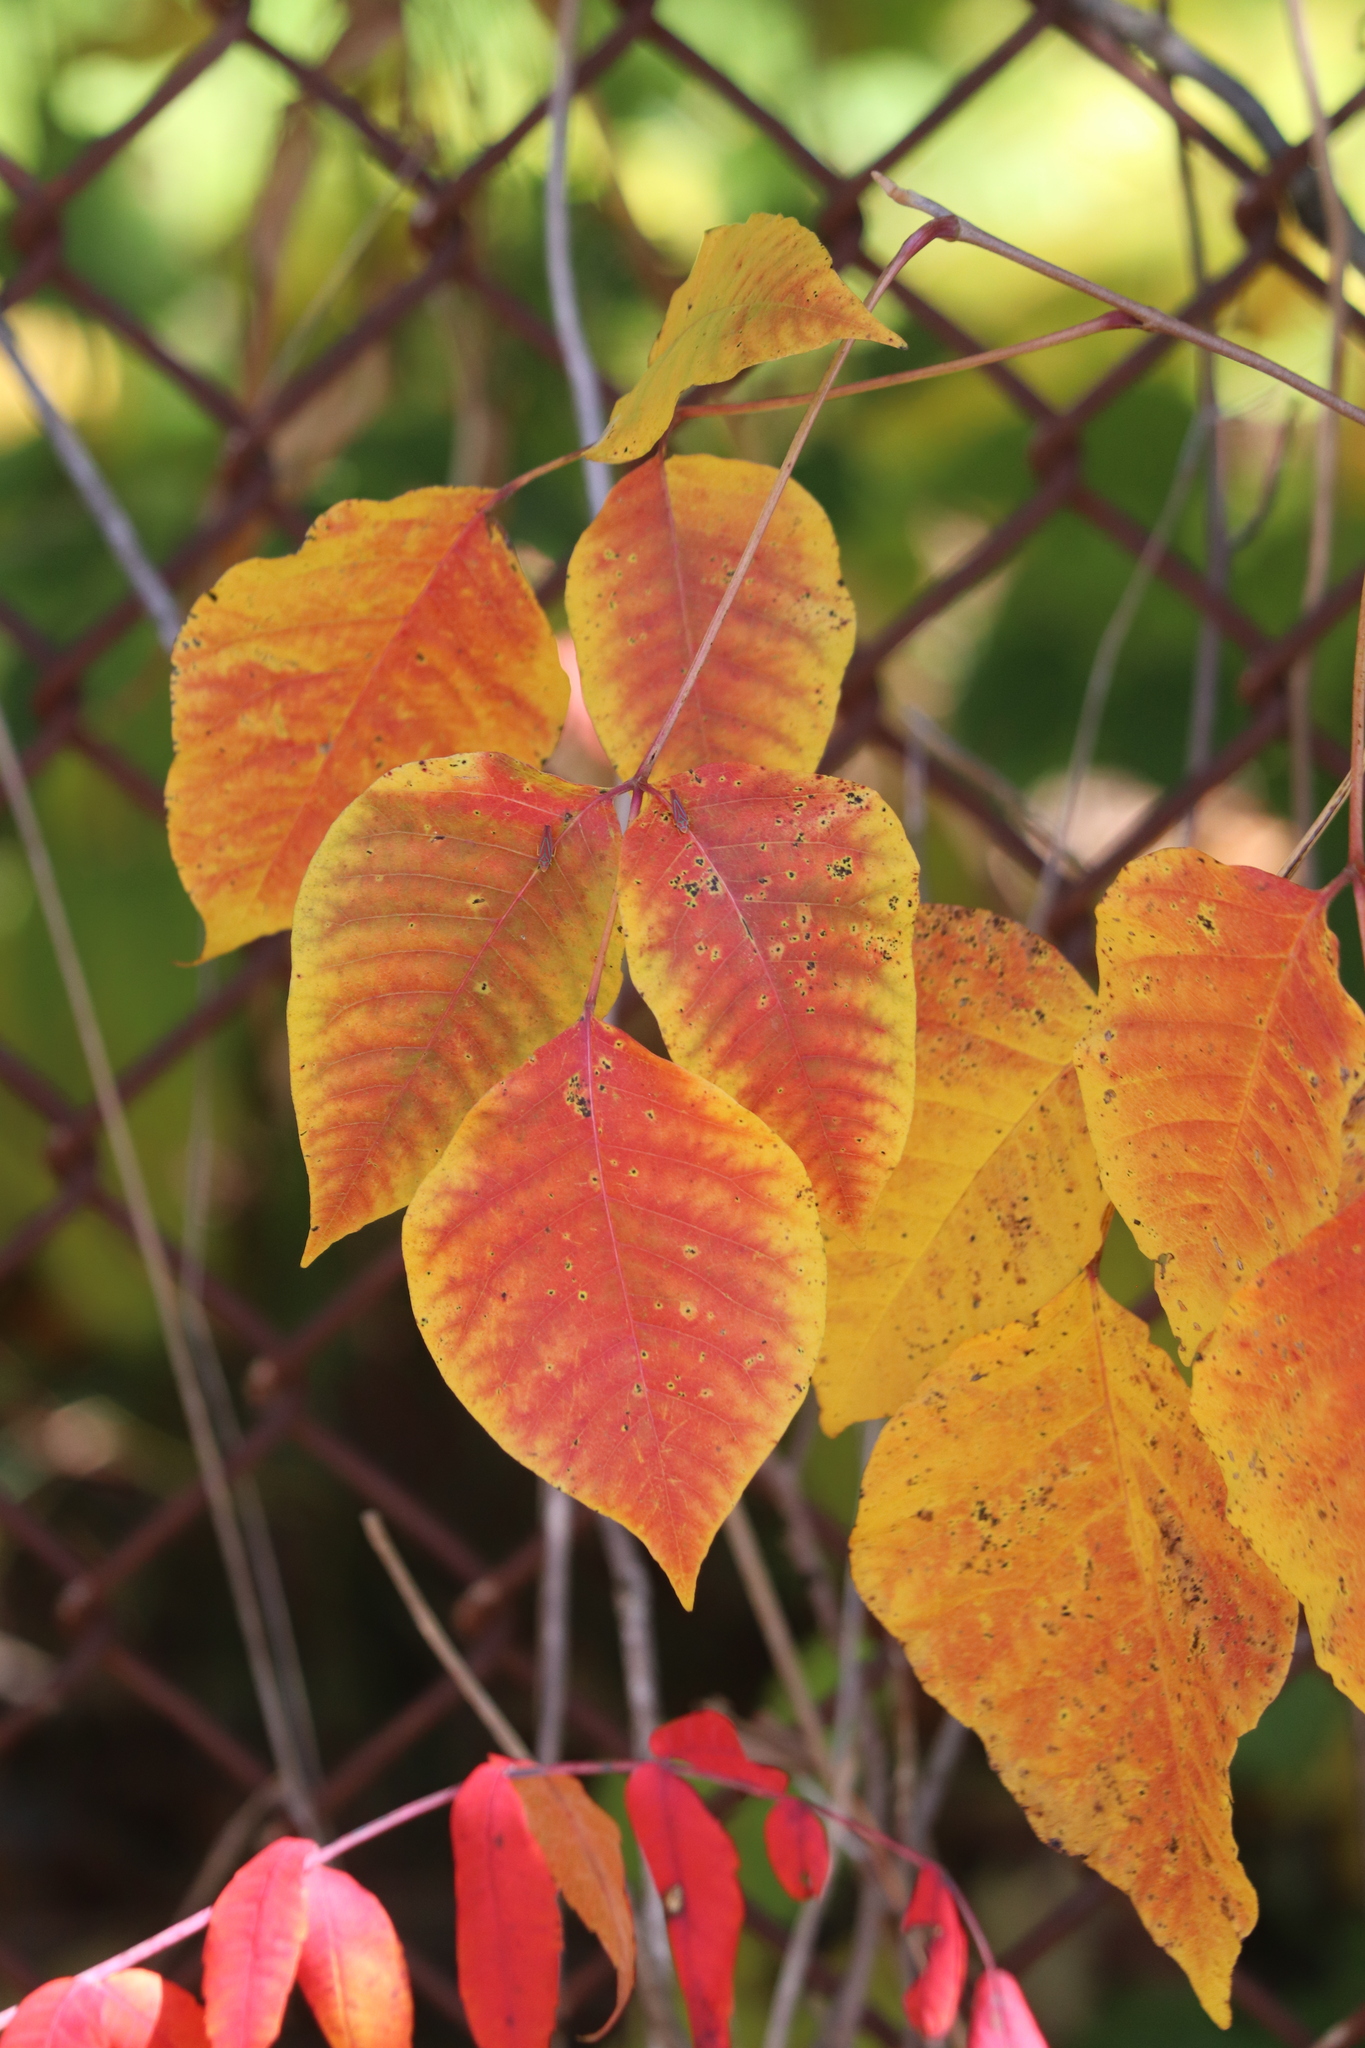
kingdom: Plantae
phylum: Tracheophyta
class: Magnoliopsida
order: Sapindales
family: Anacardiaceae
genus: Toxicodendron
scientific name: Toxicodendron radicans
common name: Poison ivy
